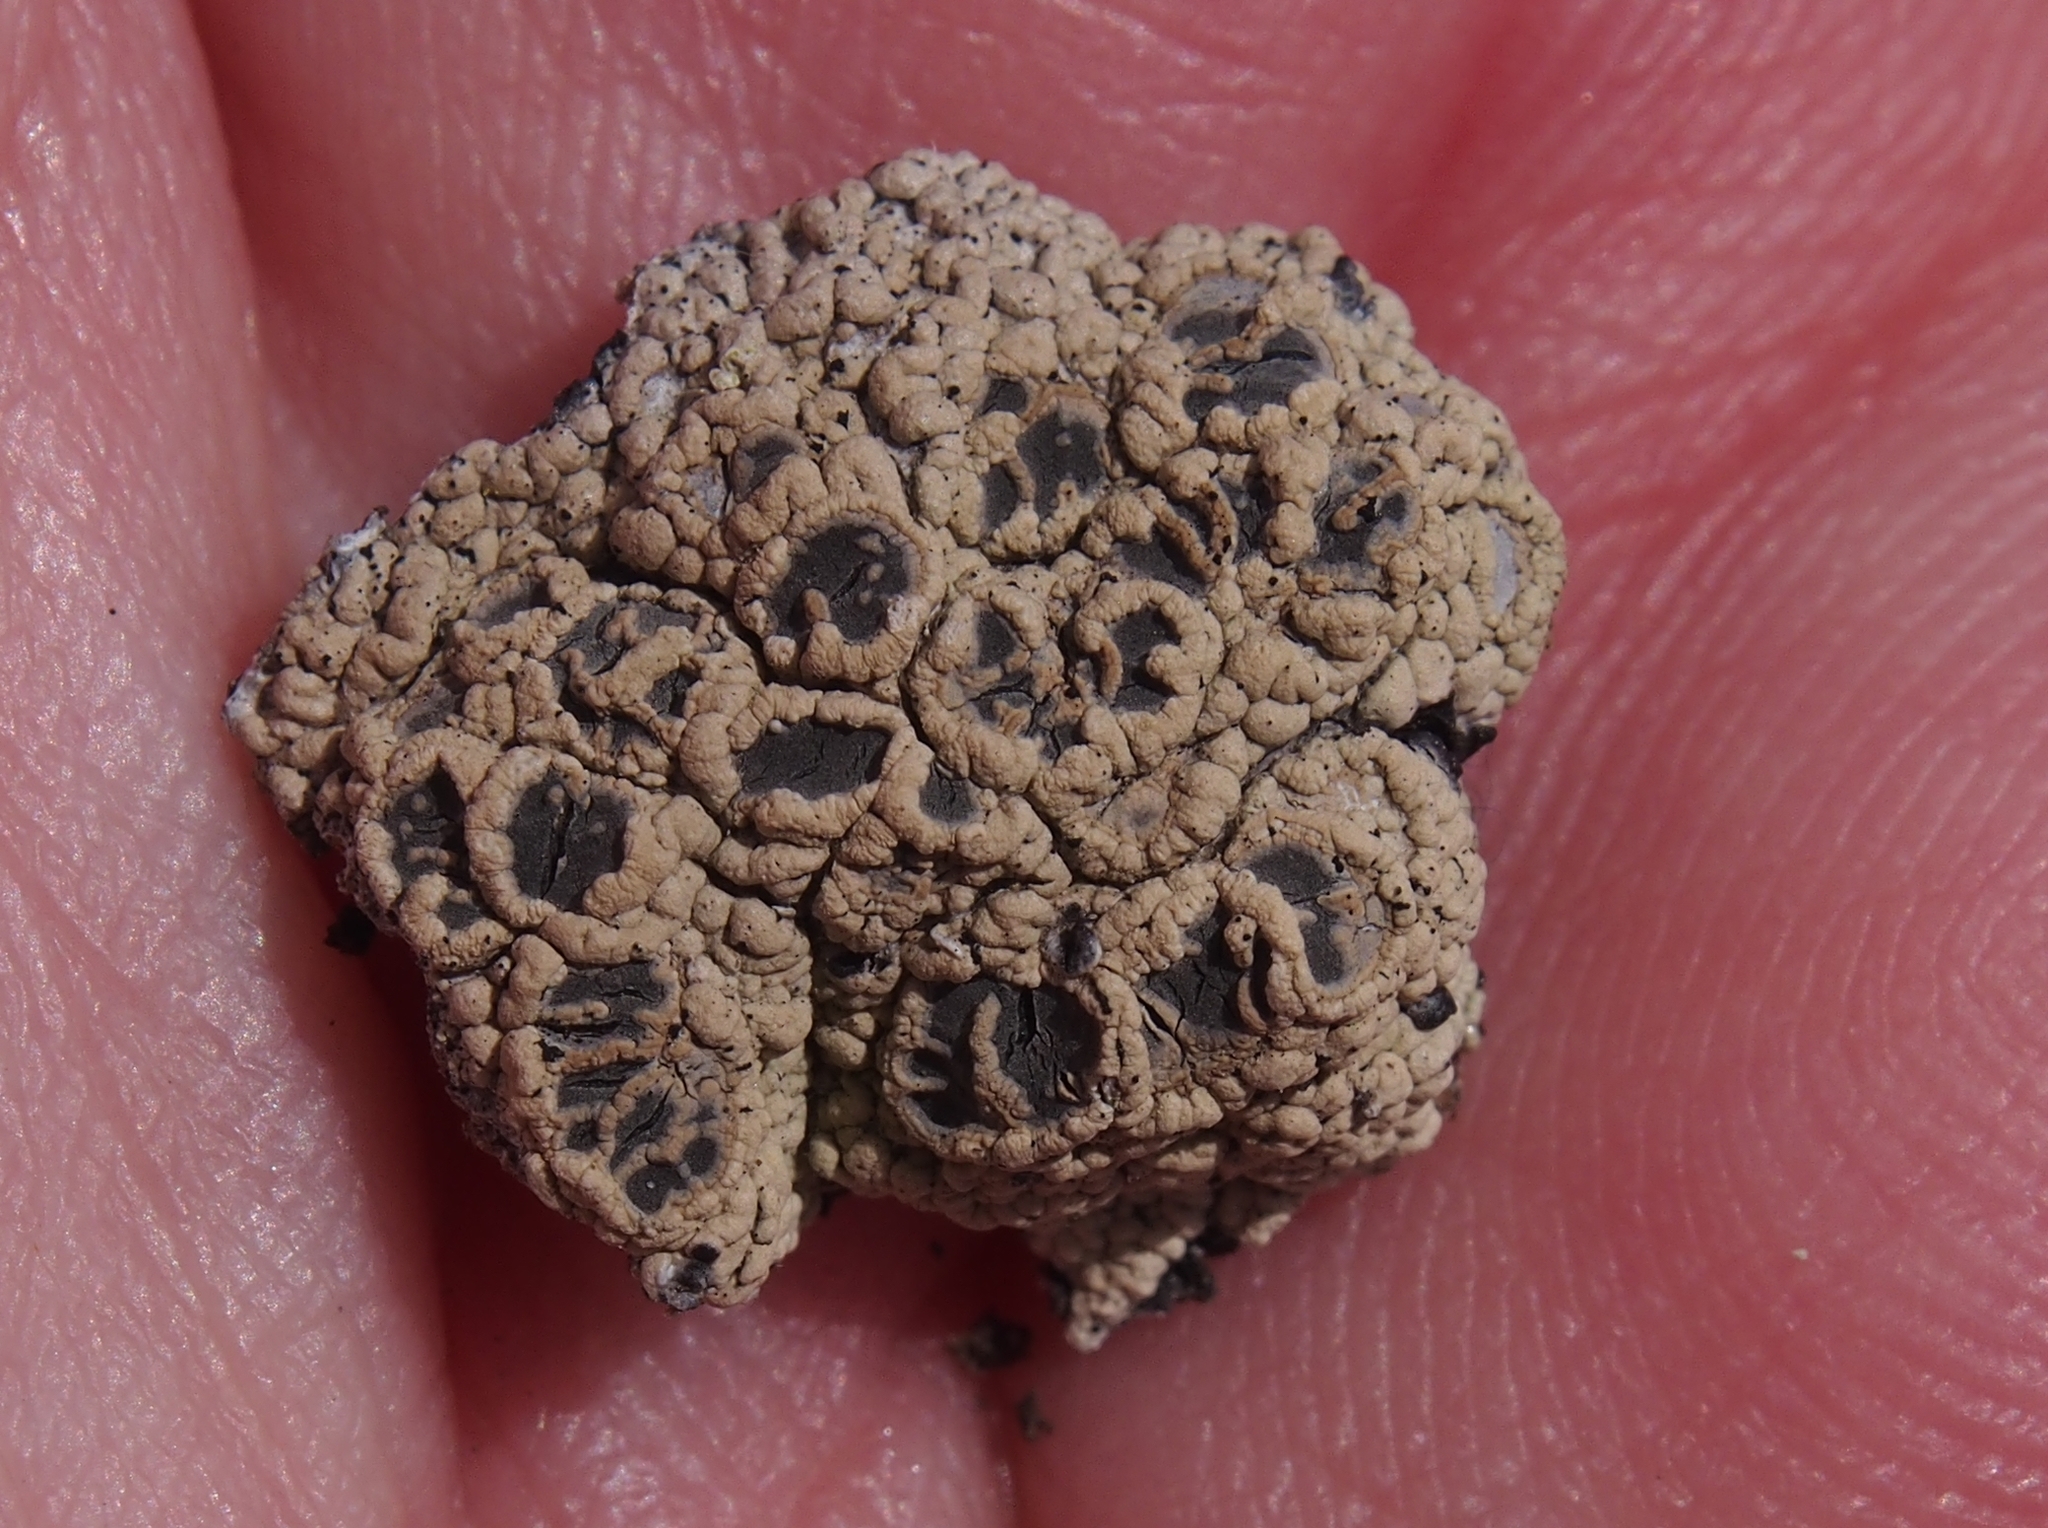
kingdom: Fungi
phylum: Ascomycota
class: Lecanoromycetes
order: Ostropales
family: Graphidaceae
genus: Diploschistes
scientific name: Diploschistes cinereocaesius
